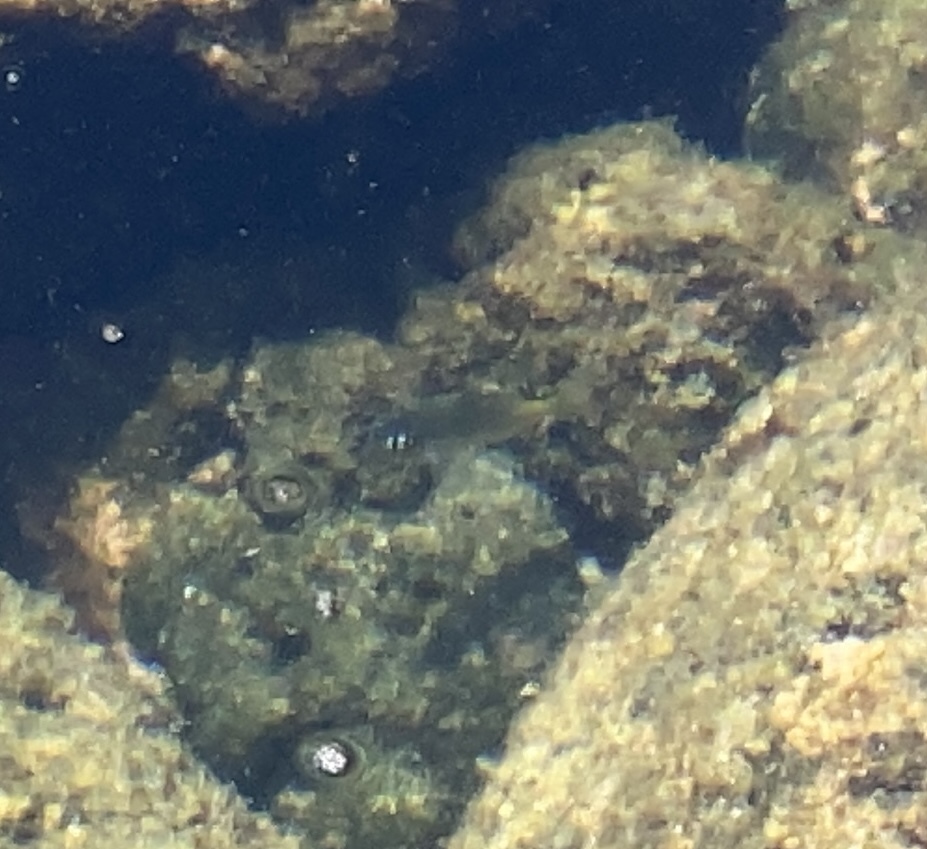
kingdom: Animalia
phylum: Chordata
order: Perciformes
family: Pomacentridae
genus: Plectroglyphidodon
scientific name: Plectroglyphidodon imparipennis
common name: Brighteye damsel
